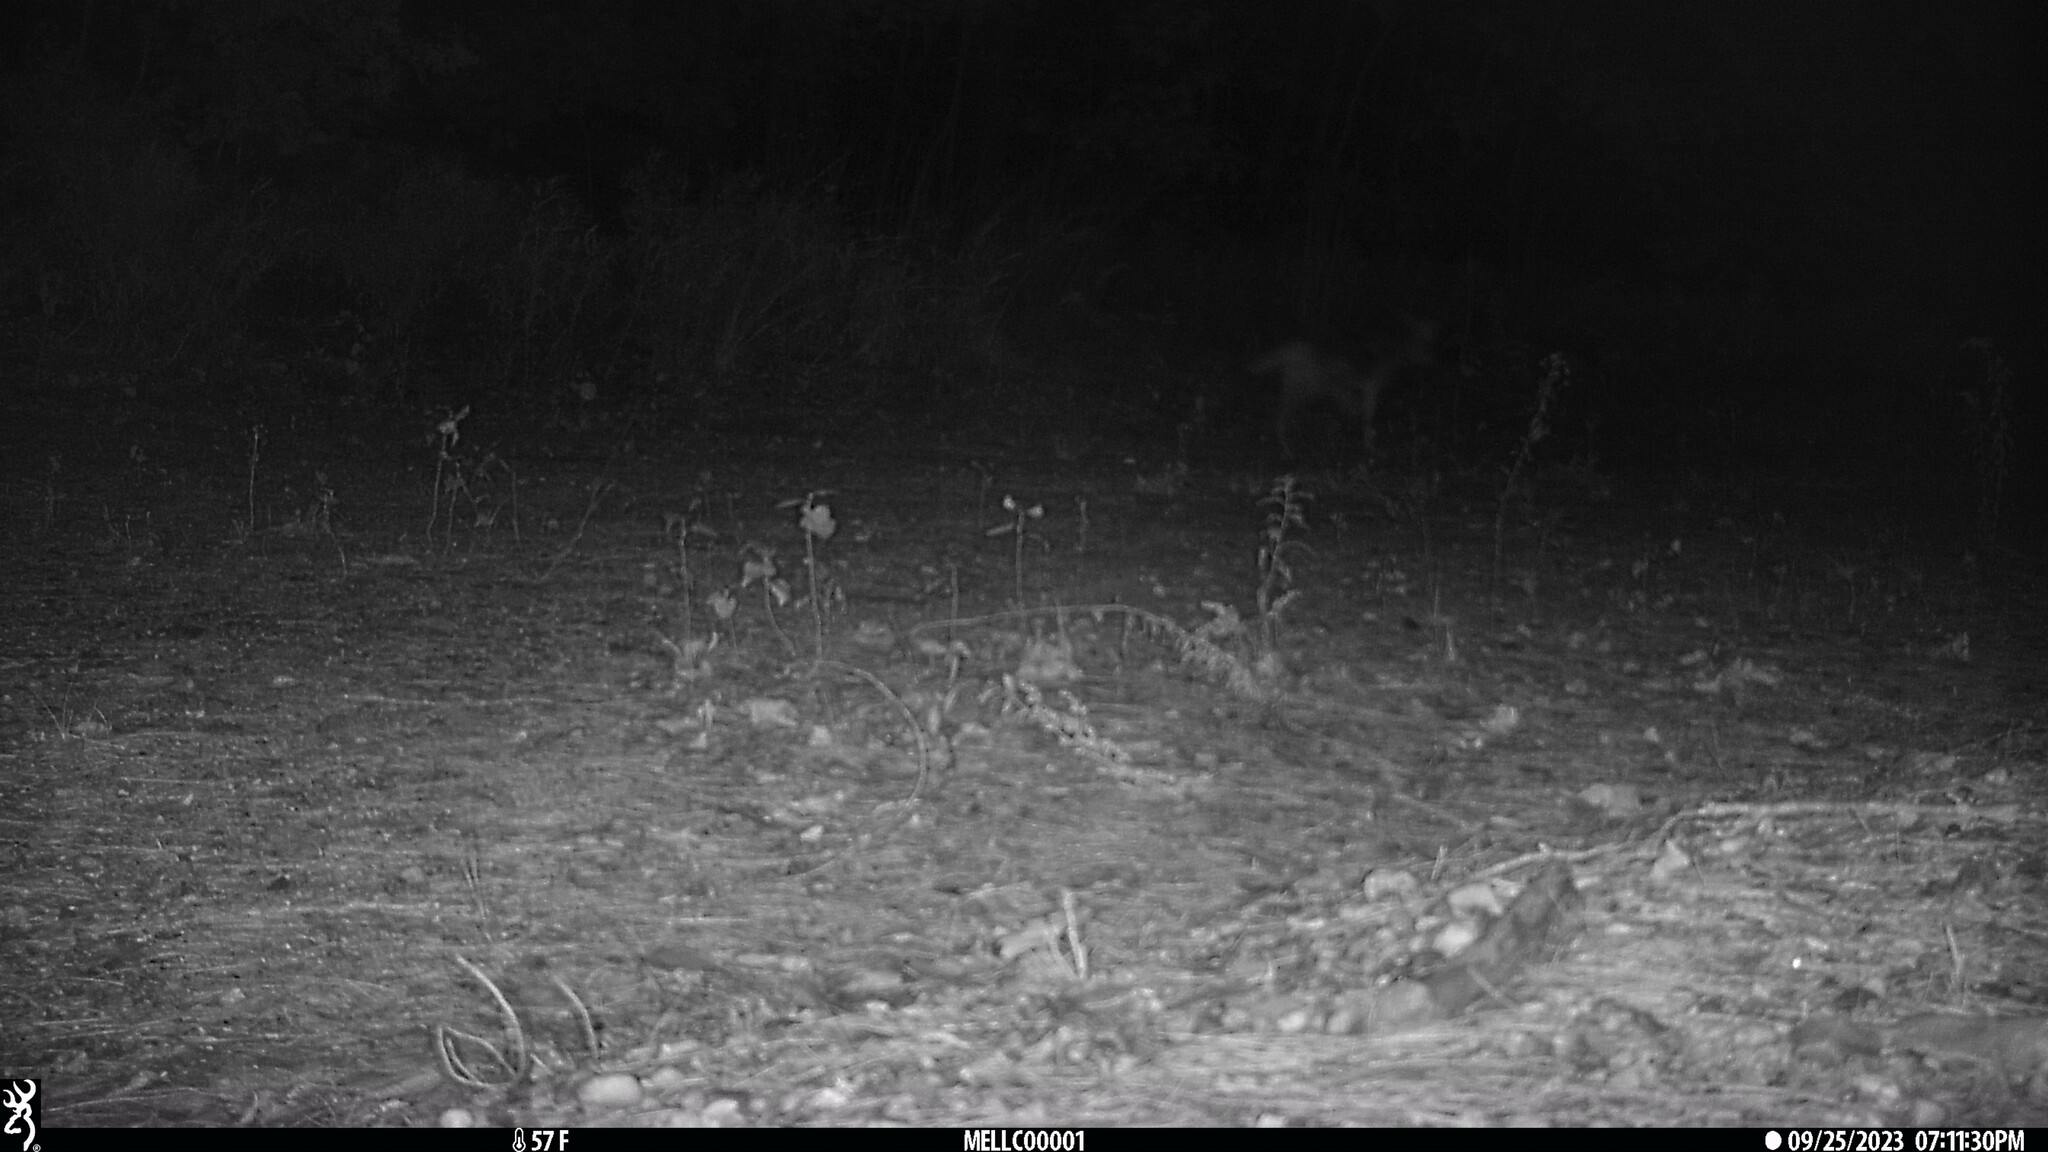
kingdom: Animalia
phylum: Chordata
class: Mammalia
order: Carnivora
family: Canidae
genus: Canis
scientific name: Canis latrans
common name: Coyote
